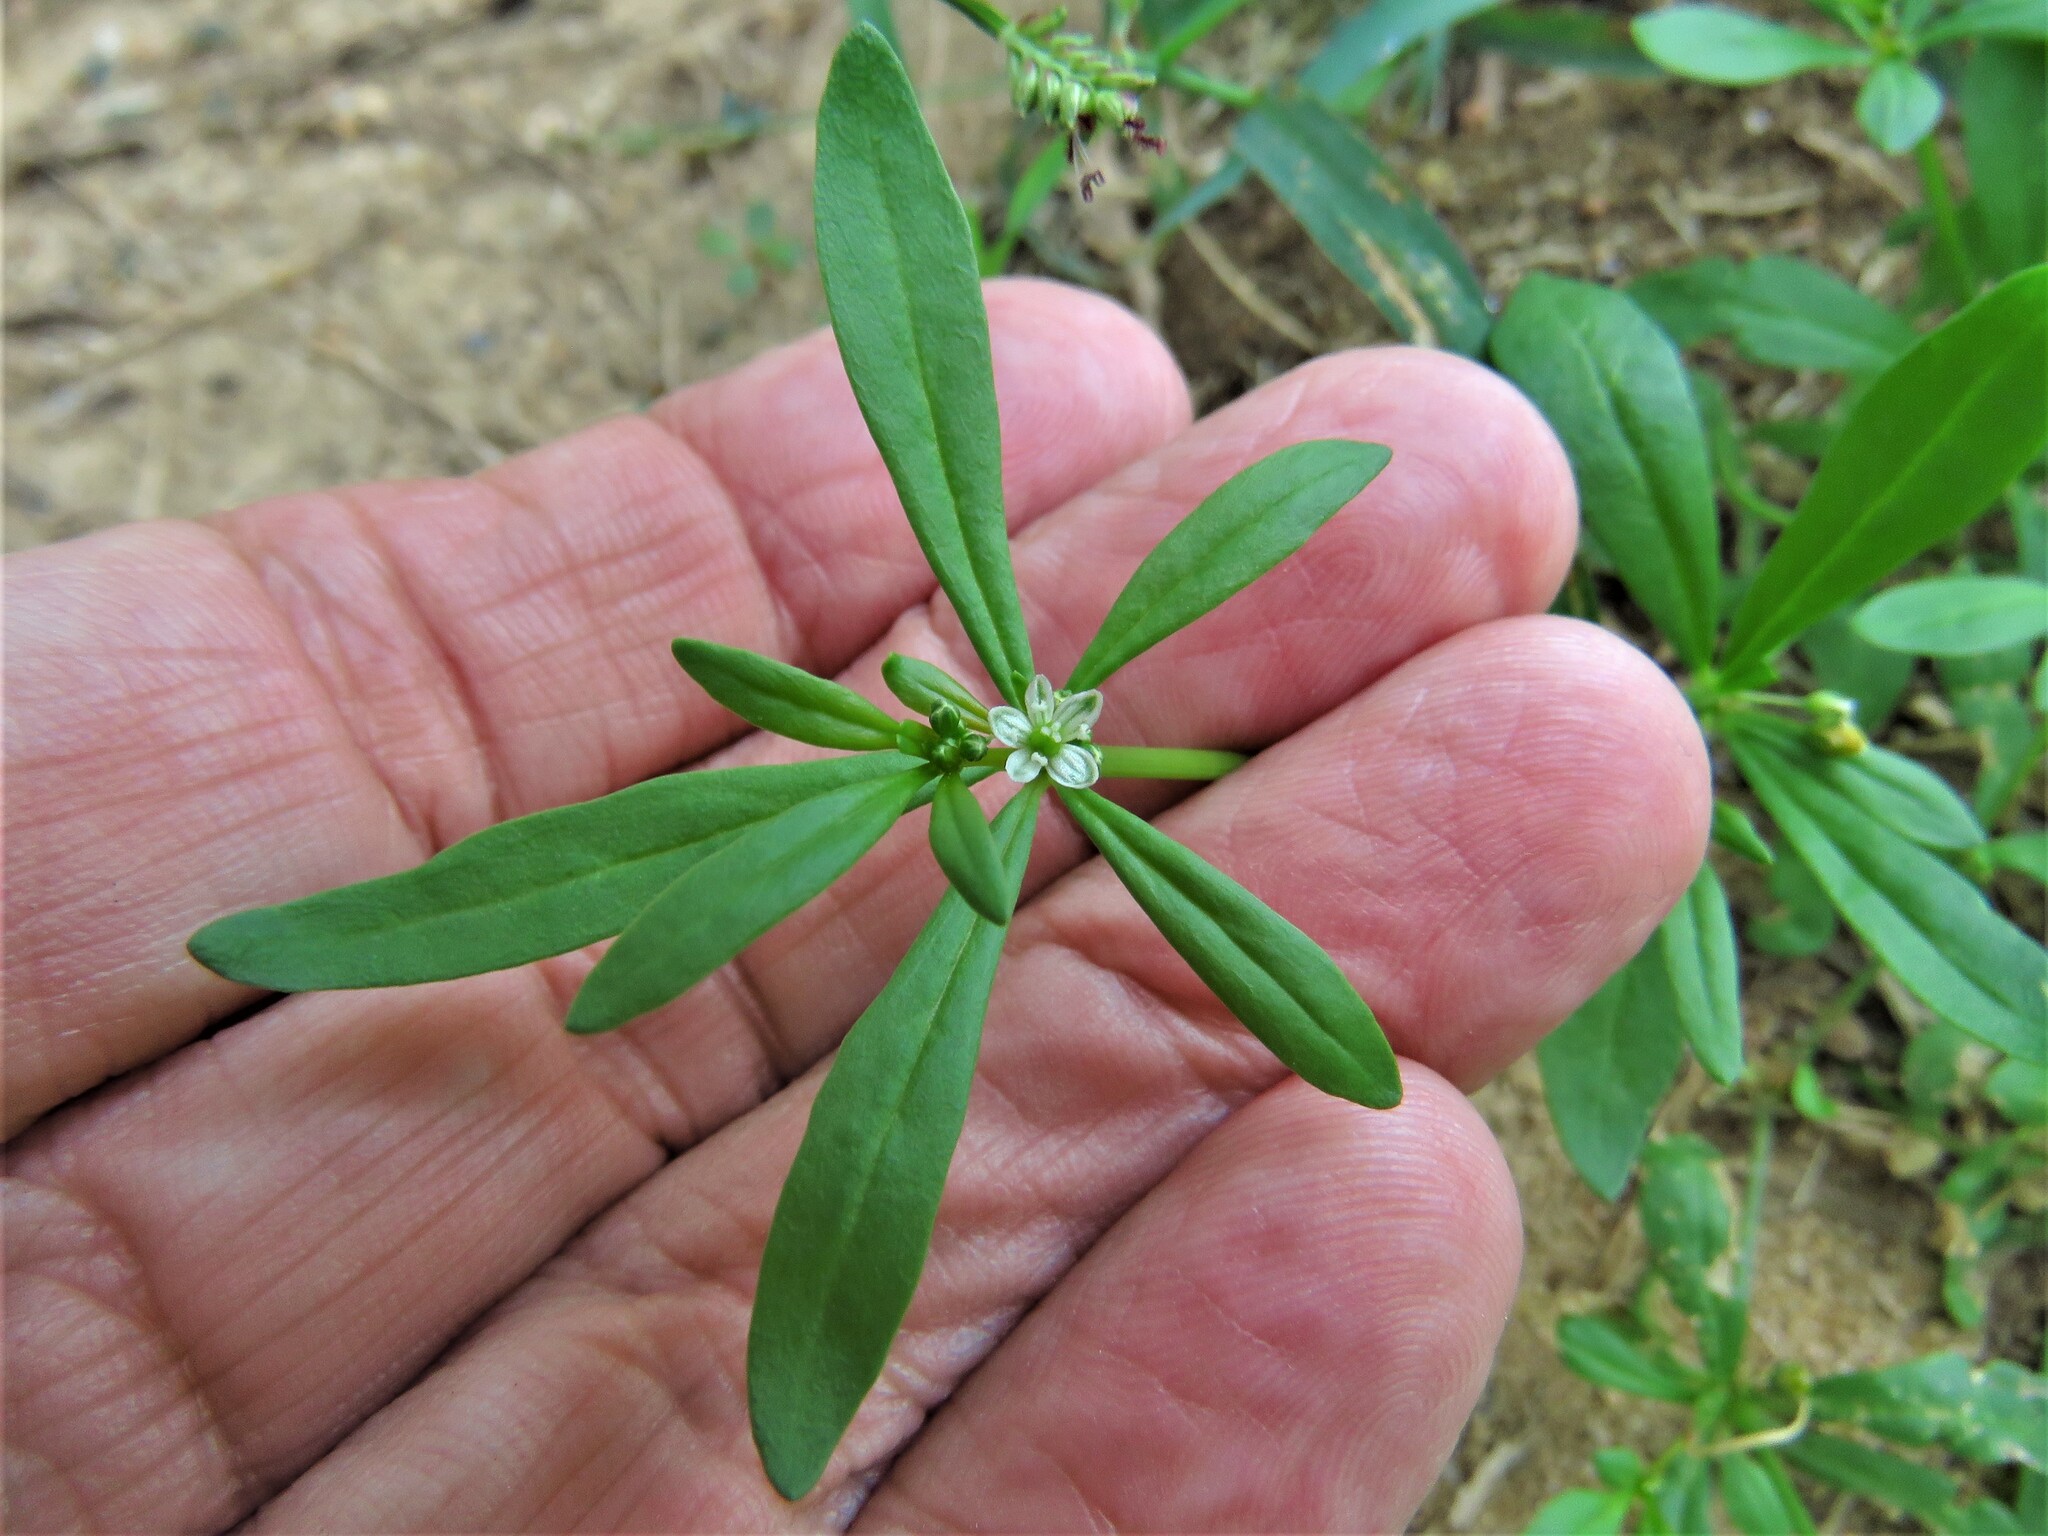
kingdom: Plantae
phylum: Tracheophyta
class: Magnoliopsida
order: Caryophyllales
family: Molluginaceae
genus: Mollugo
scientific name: Mollugo verticillata
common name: Green carpetweed
